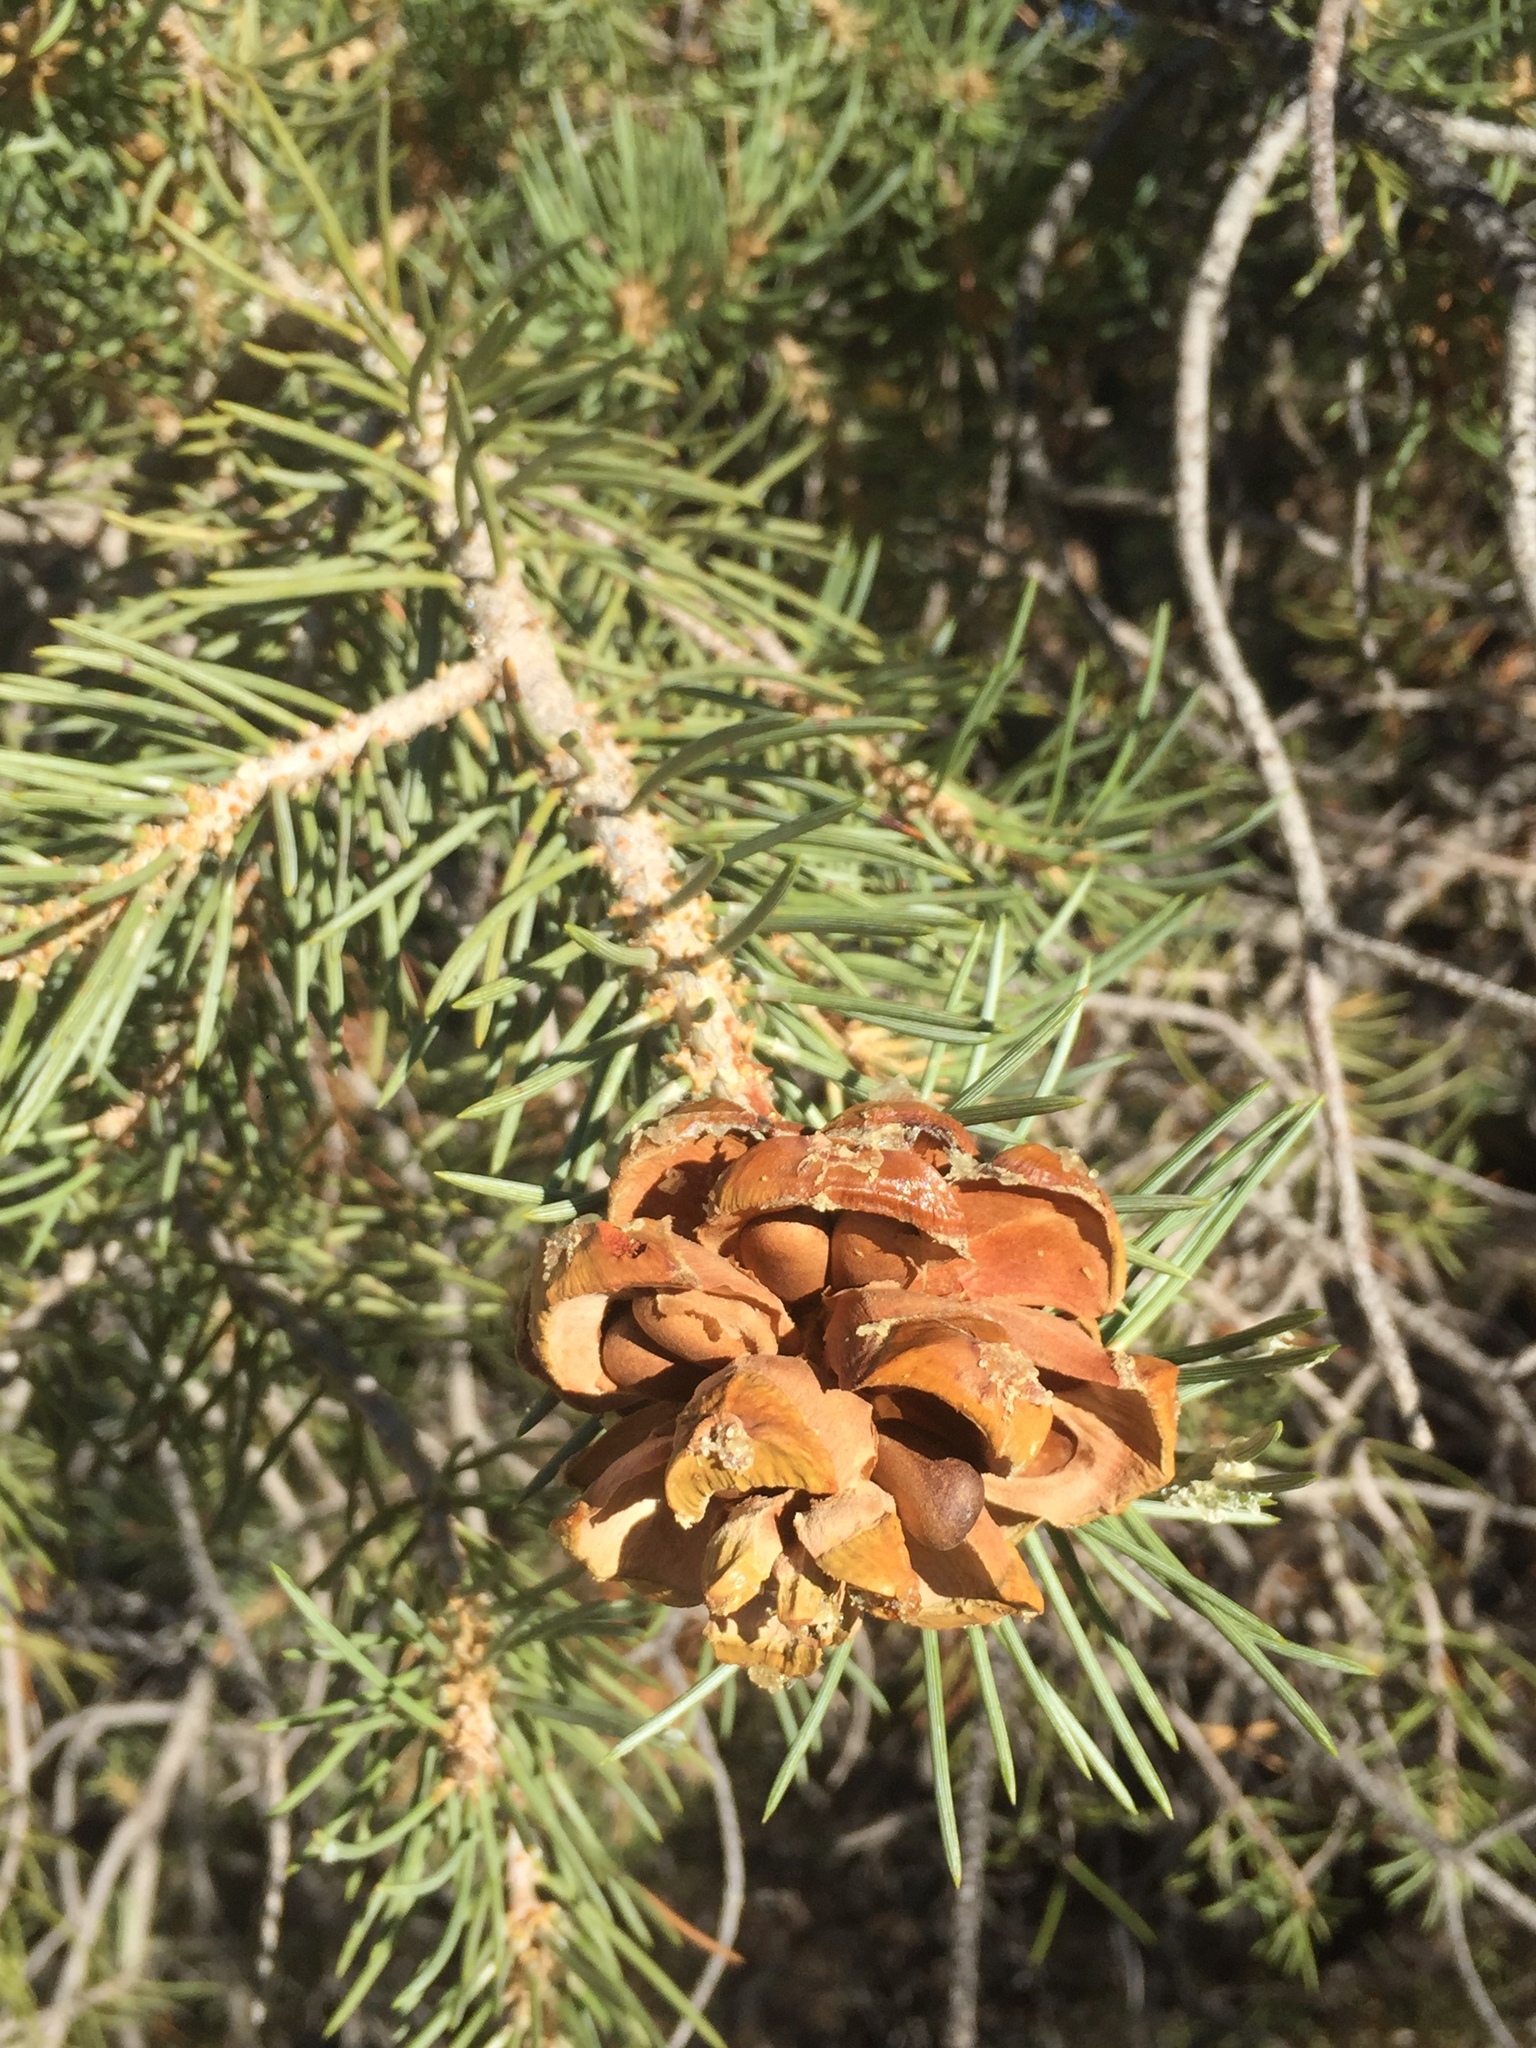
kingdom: Plantae
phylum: Tracheophyta
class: Pinopsida
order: Pinales
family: Pinaceae
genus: Pinus
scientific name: Pinus monophylla
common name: One-leaved nut pine
